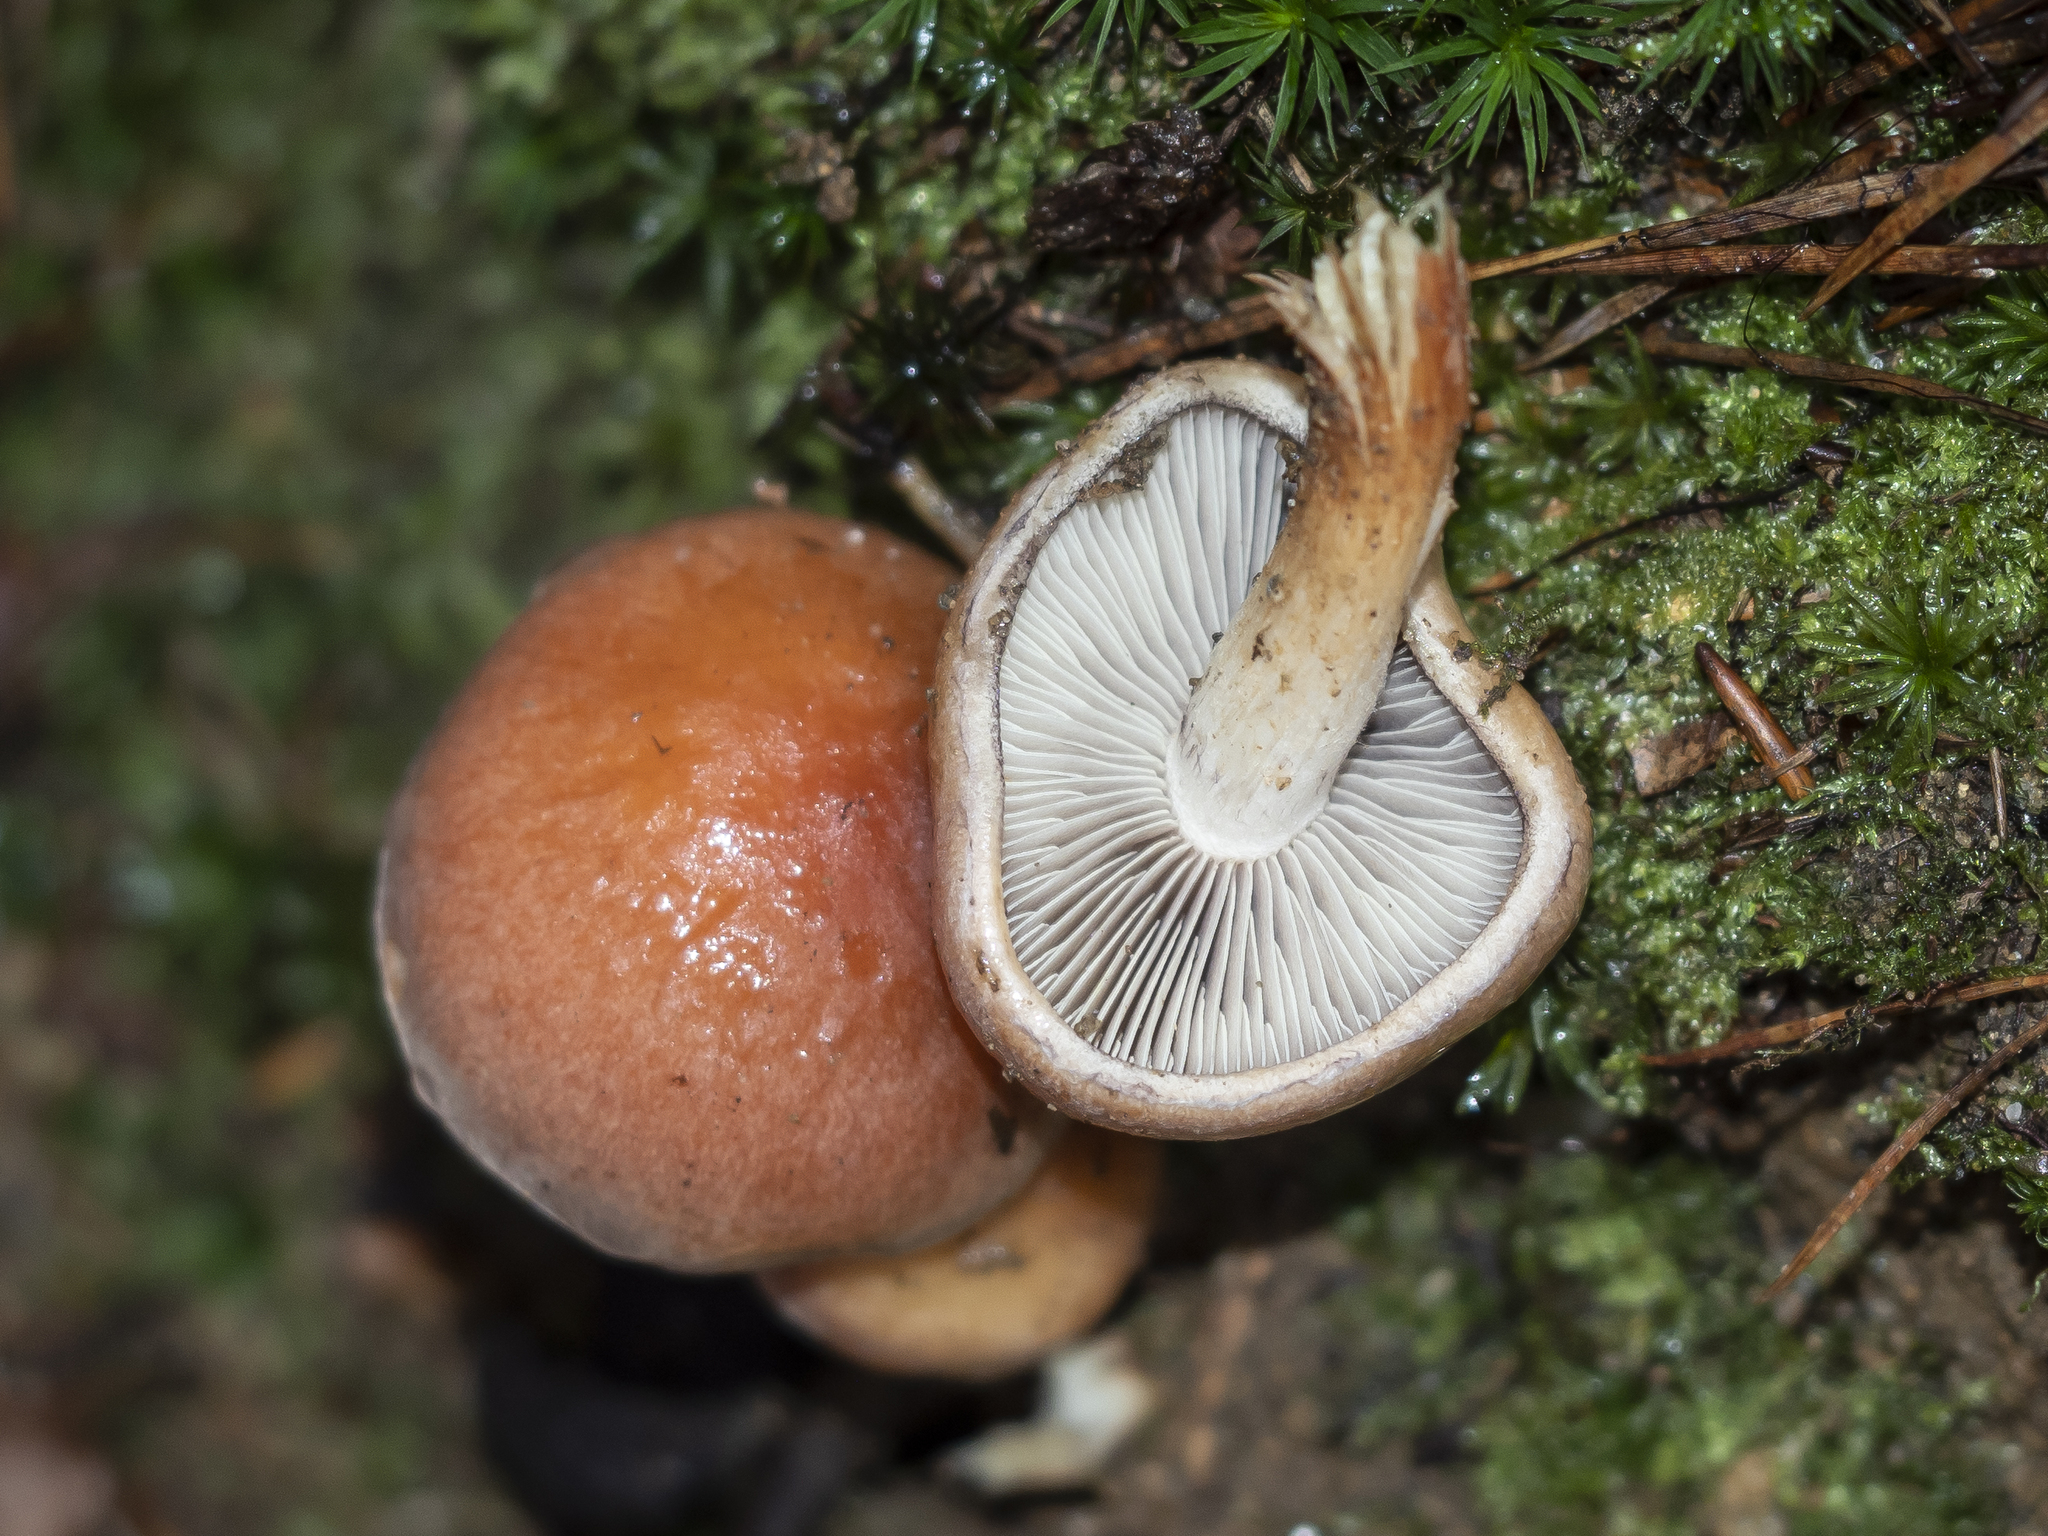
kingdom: Fungi
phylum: Basidiomycota
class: Agaricomycetes
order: Agaricales
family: Strophariaceae
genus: Hypholoma
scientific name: Hypholoma lateritium
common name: Brick caps
